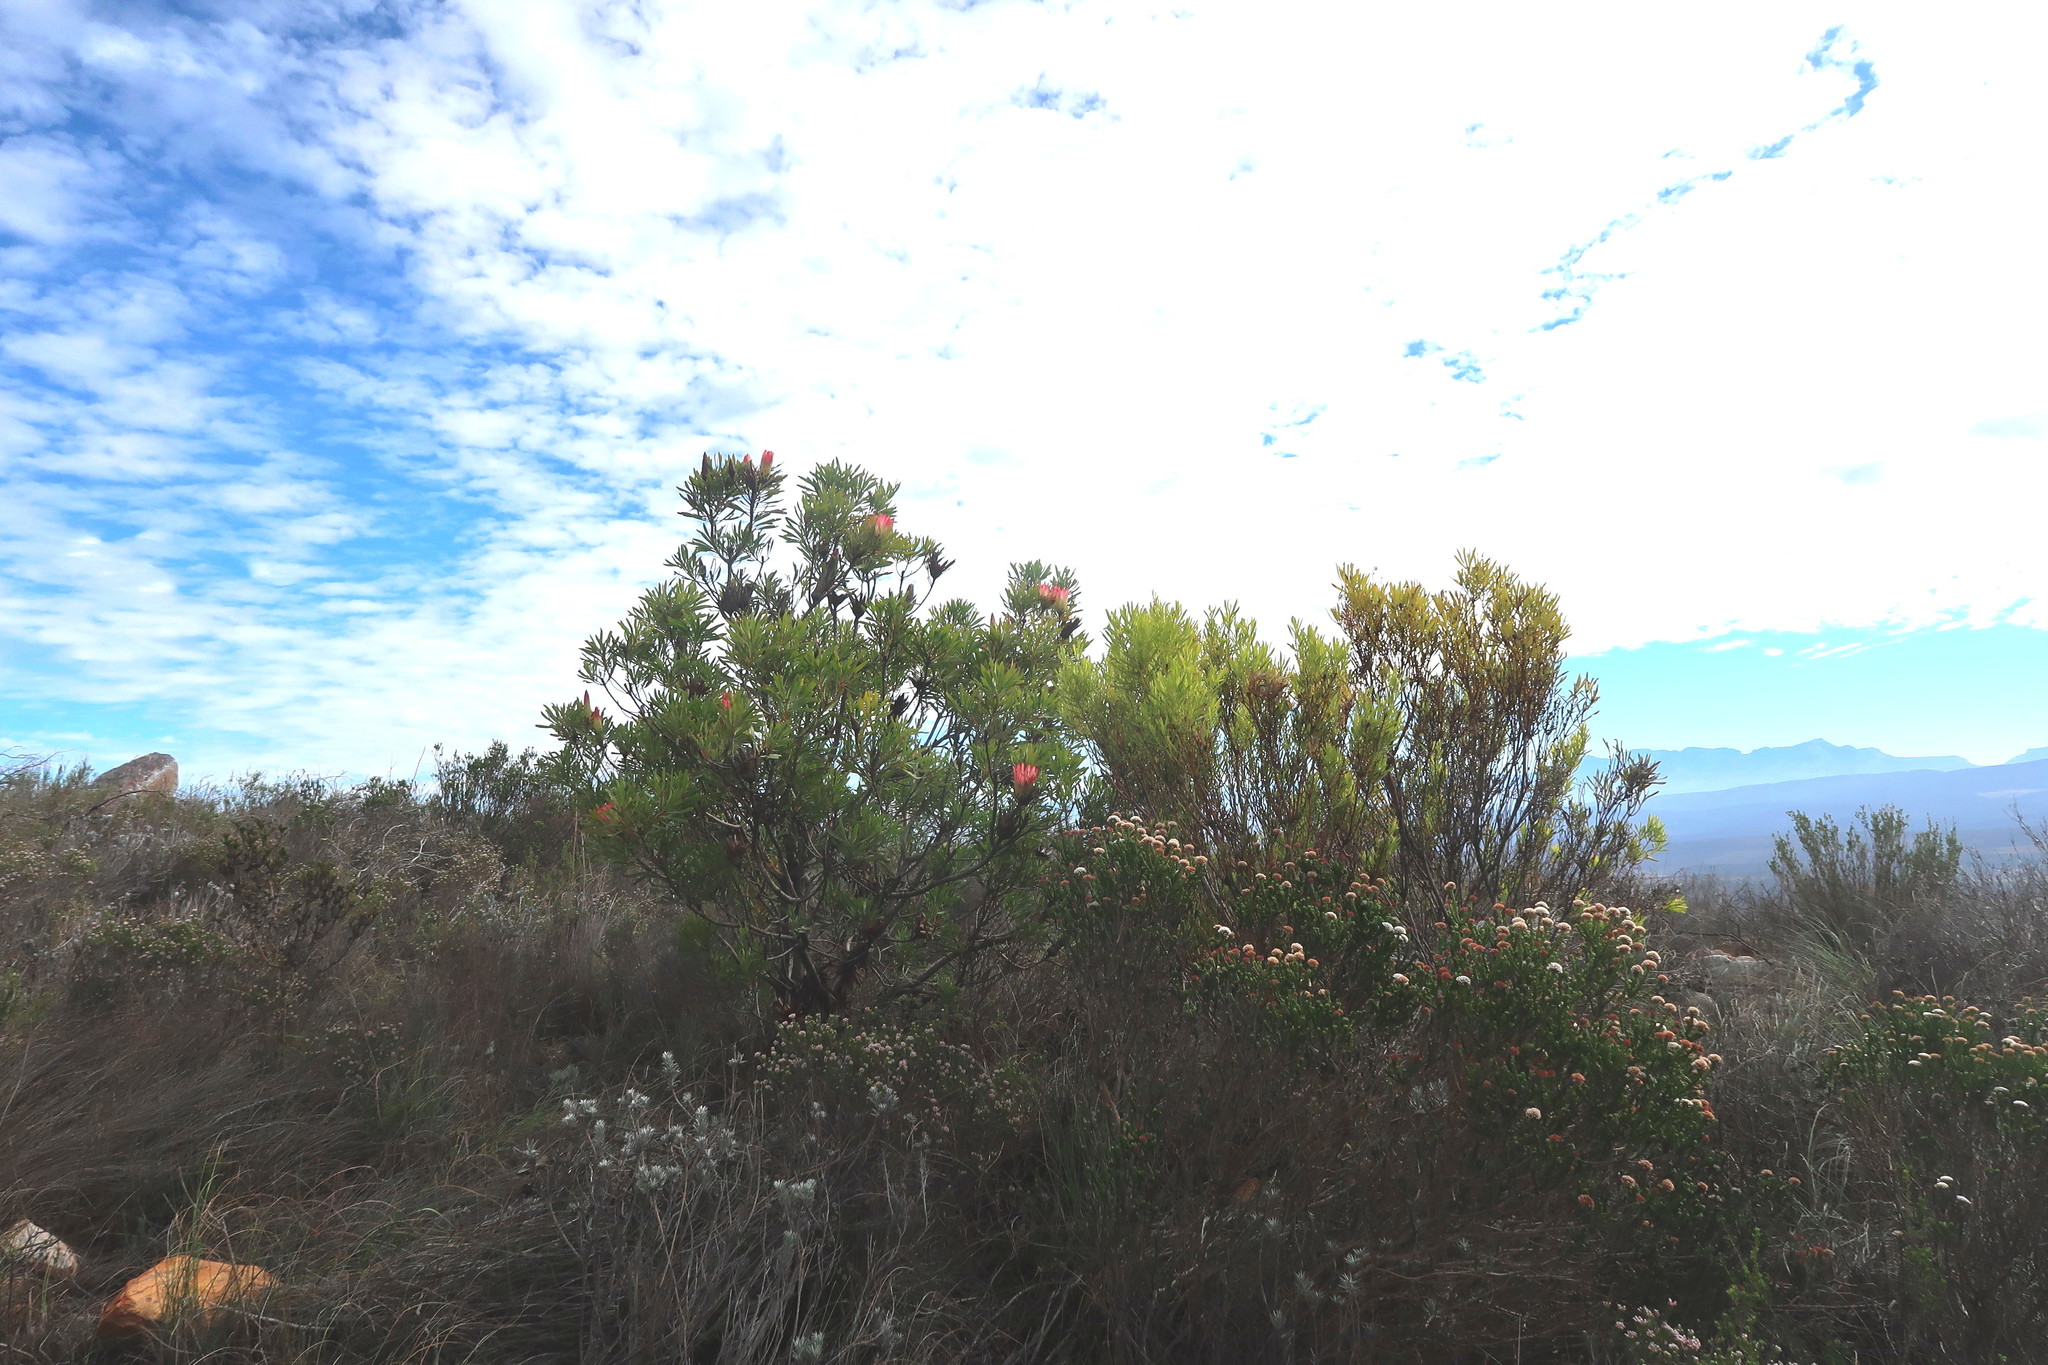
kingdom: Plantae
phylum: Tracheophyta
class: Magnoliopsida
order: Proteales
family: Proteaceae
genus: Protea
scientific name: Protea repens
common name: Sugarbush
